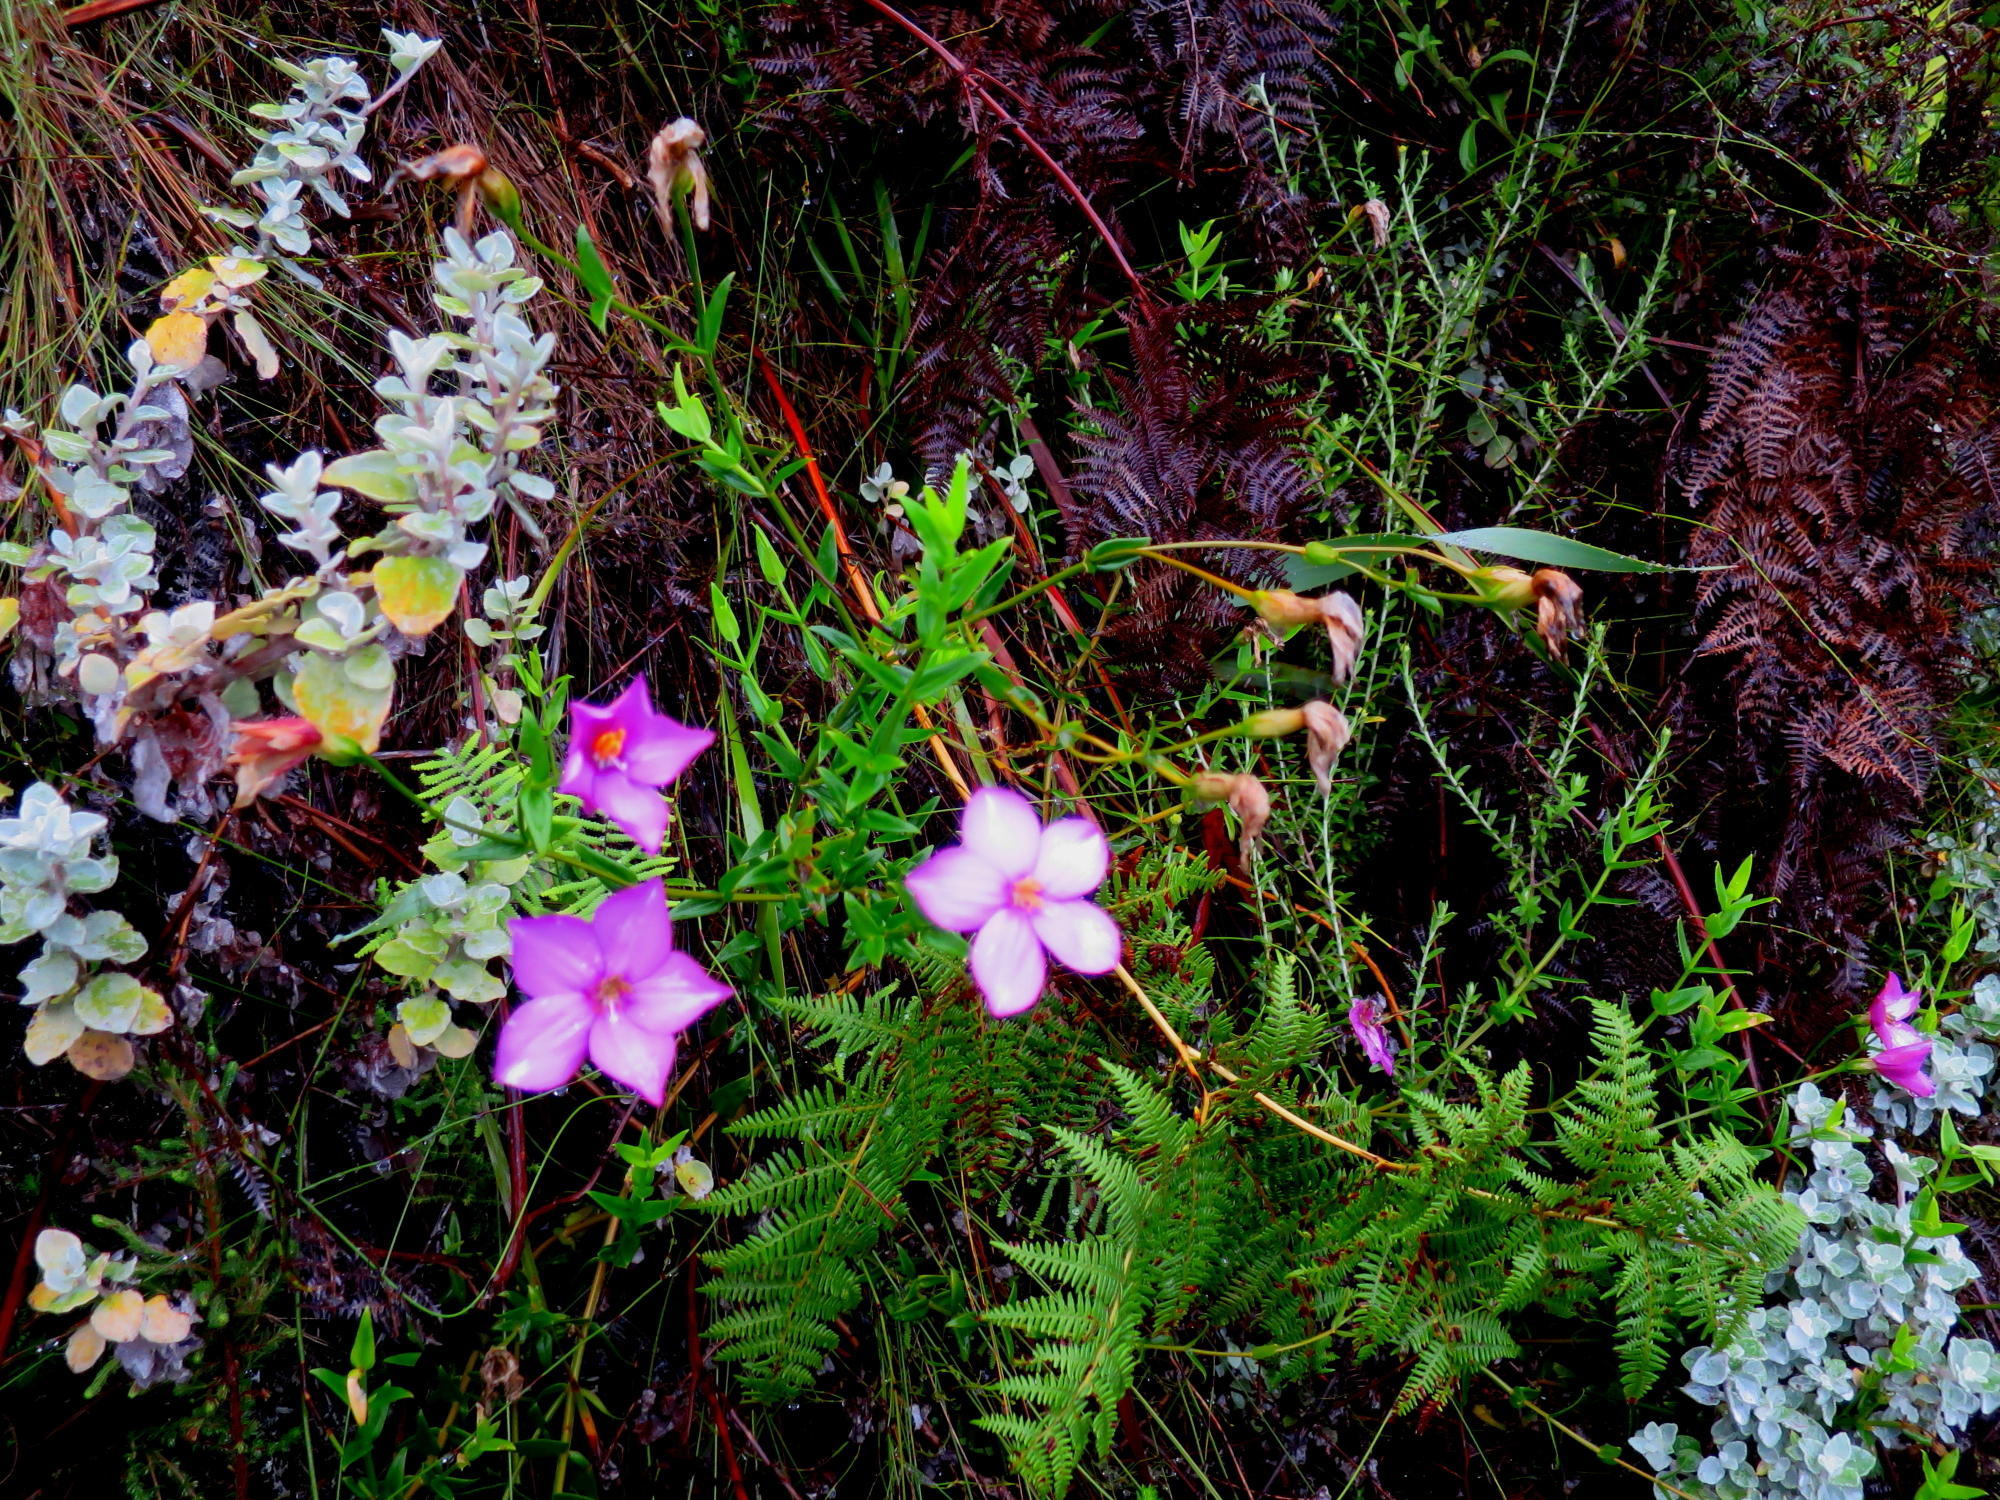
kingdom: Plantae
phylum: Tracheophyta
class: Magnoliopsida
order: Gentianales
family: Gentianaceae
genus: Chironia
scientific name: Chironia melampyrifolia
